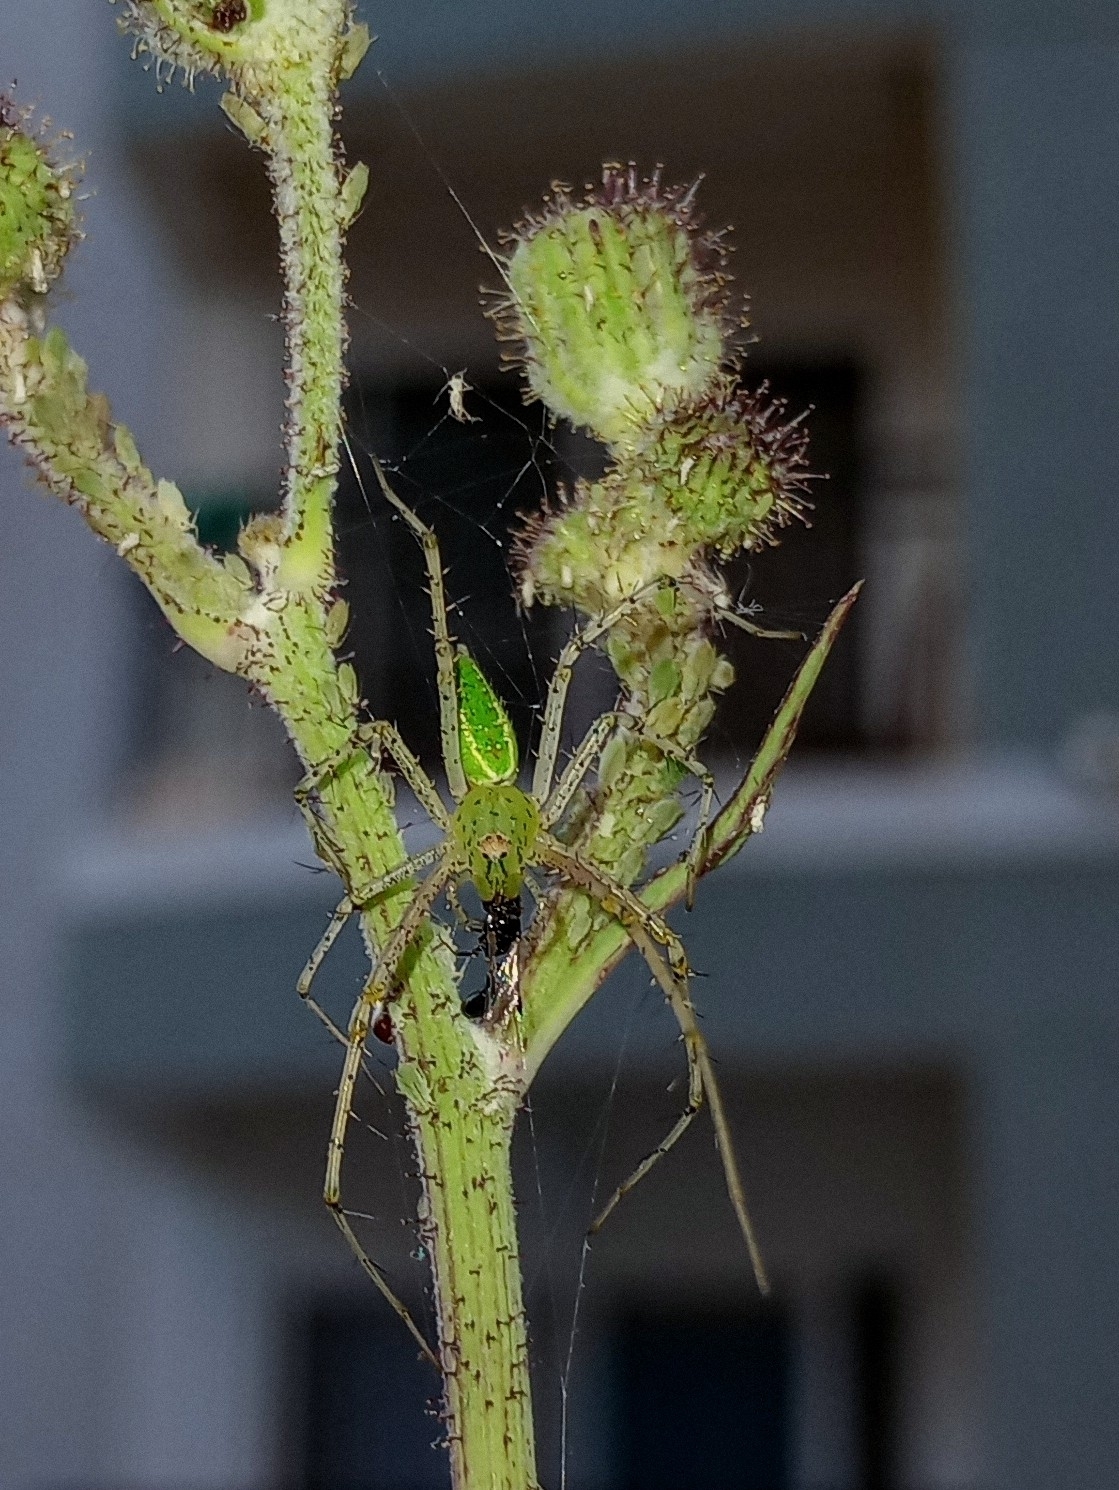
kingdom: Animalia
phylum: Arthropoda
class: Arachnida
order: Araneae
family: Oxyopidae
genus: Peucetia
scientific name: Peucetia viridana
